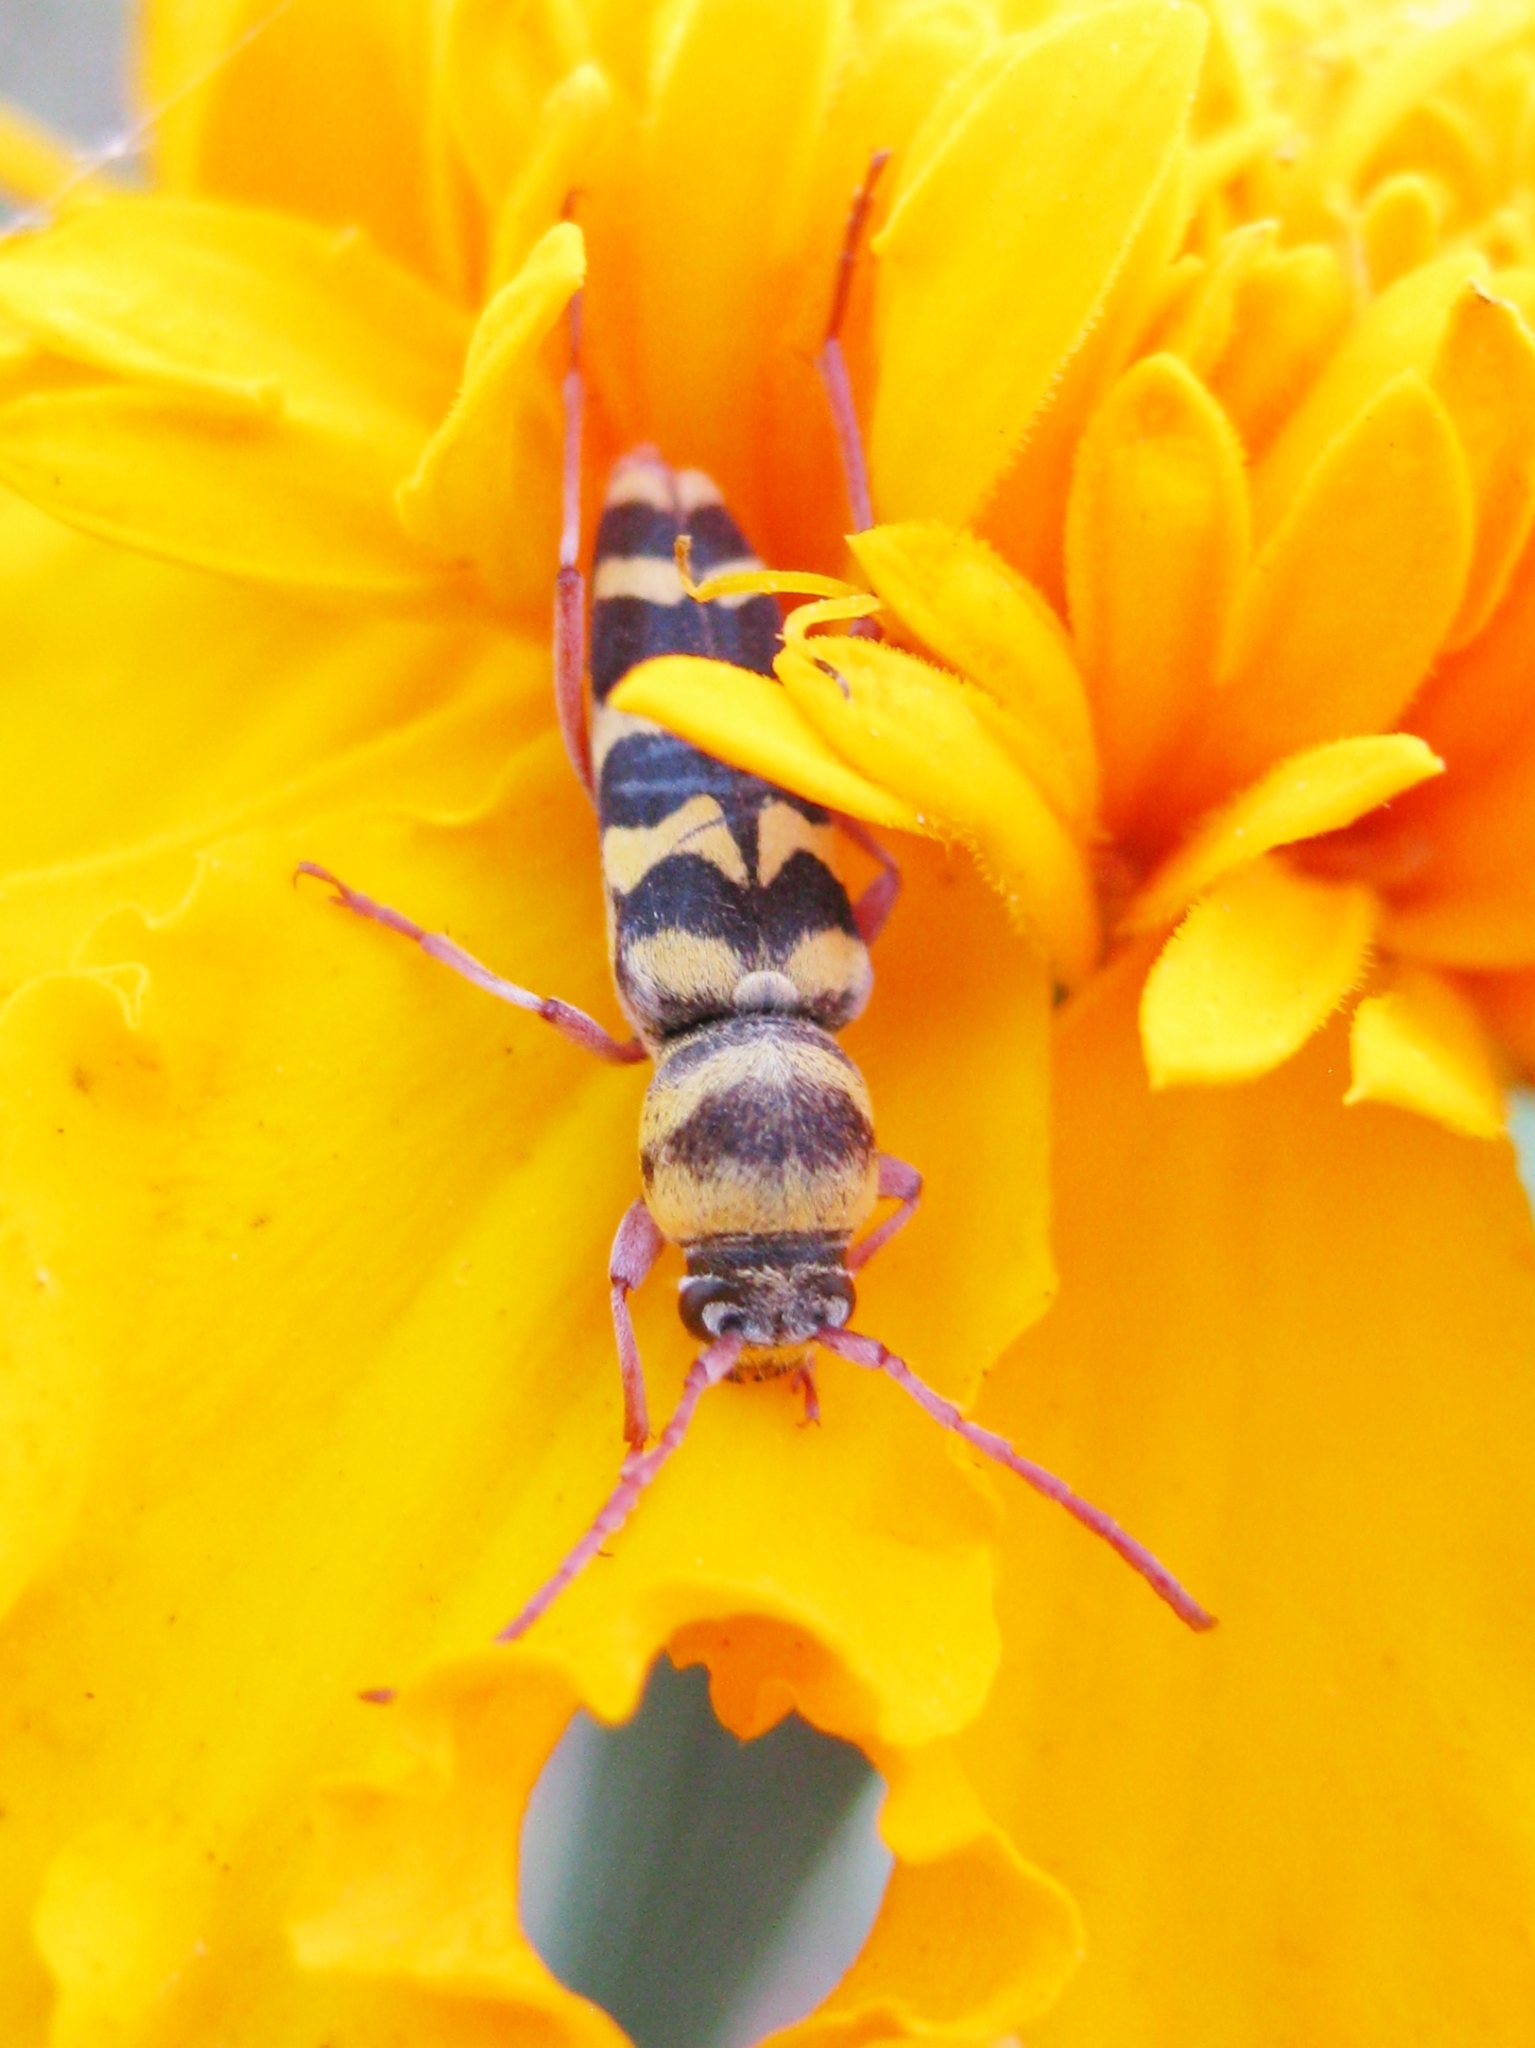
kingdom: Animalia
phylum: Arthropoda
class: Insecta
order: Coleoptera
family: Cerambycidae
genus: Plagionotus
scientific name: Plagionotus floralis
